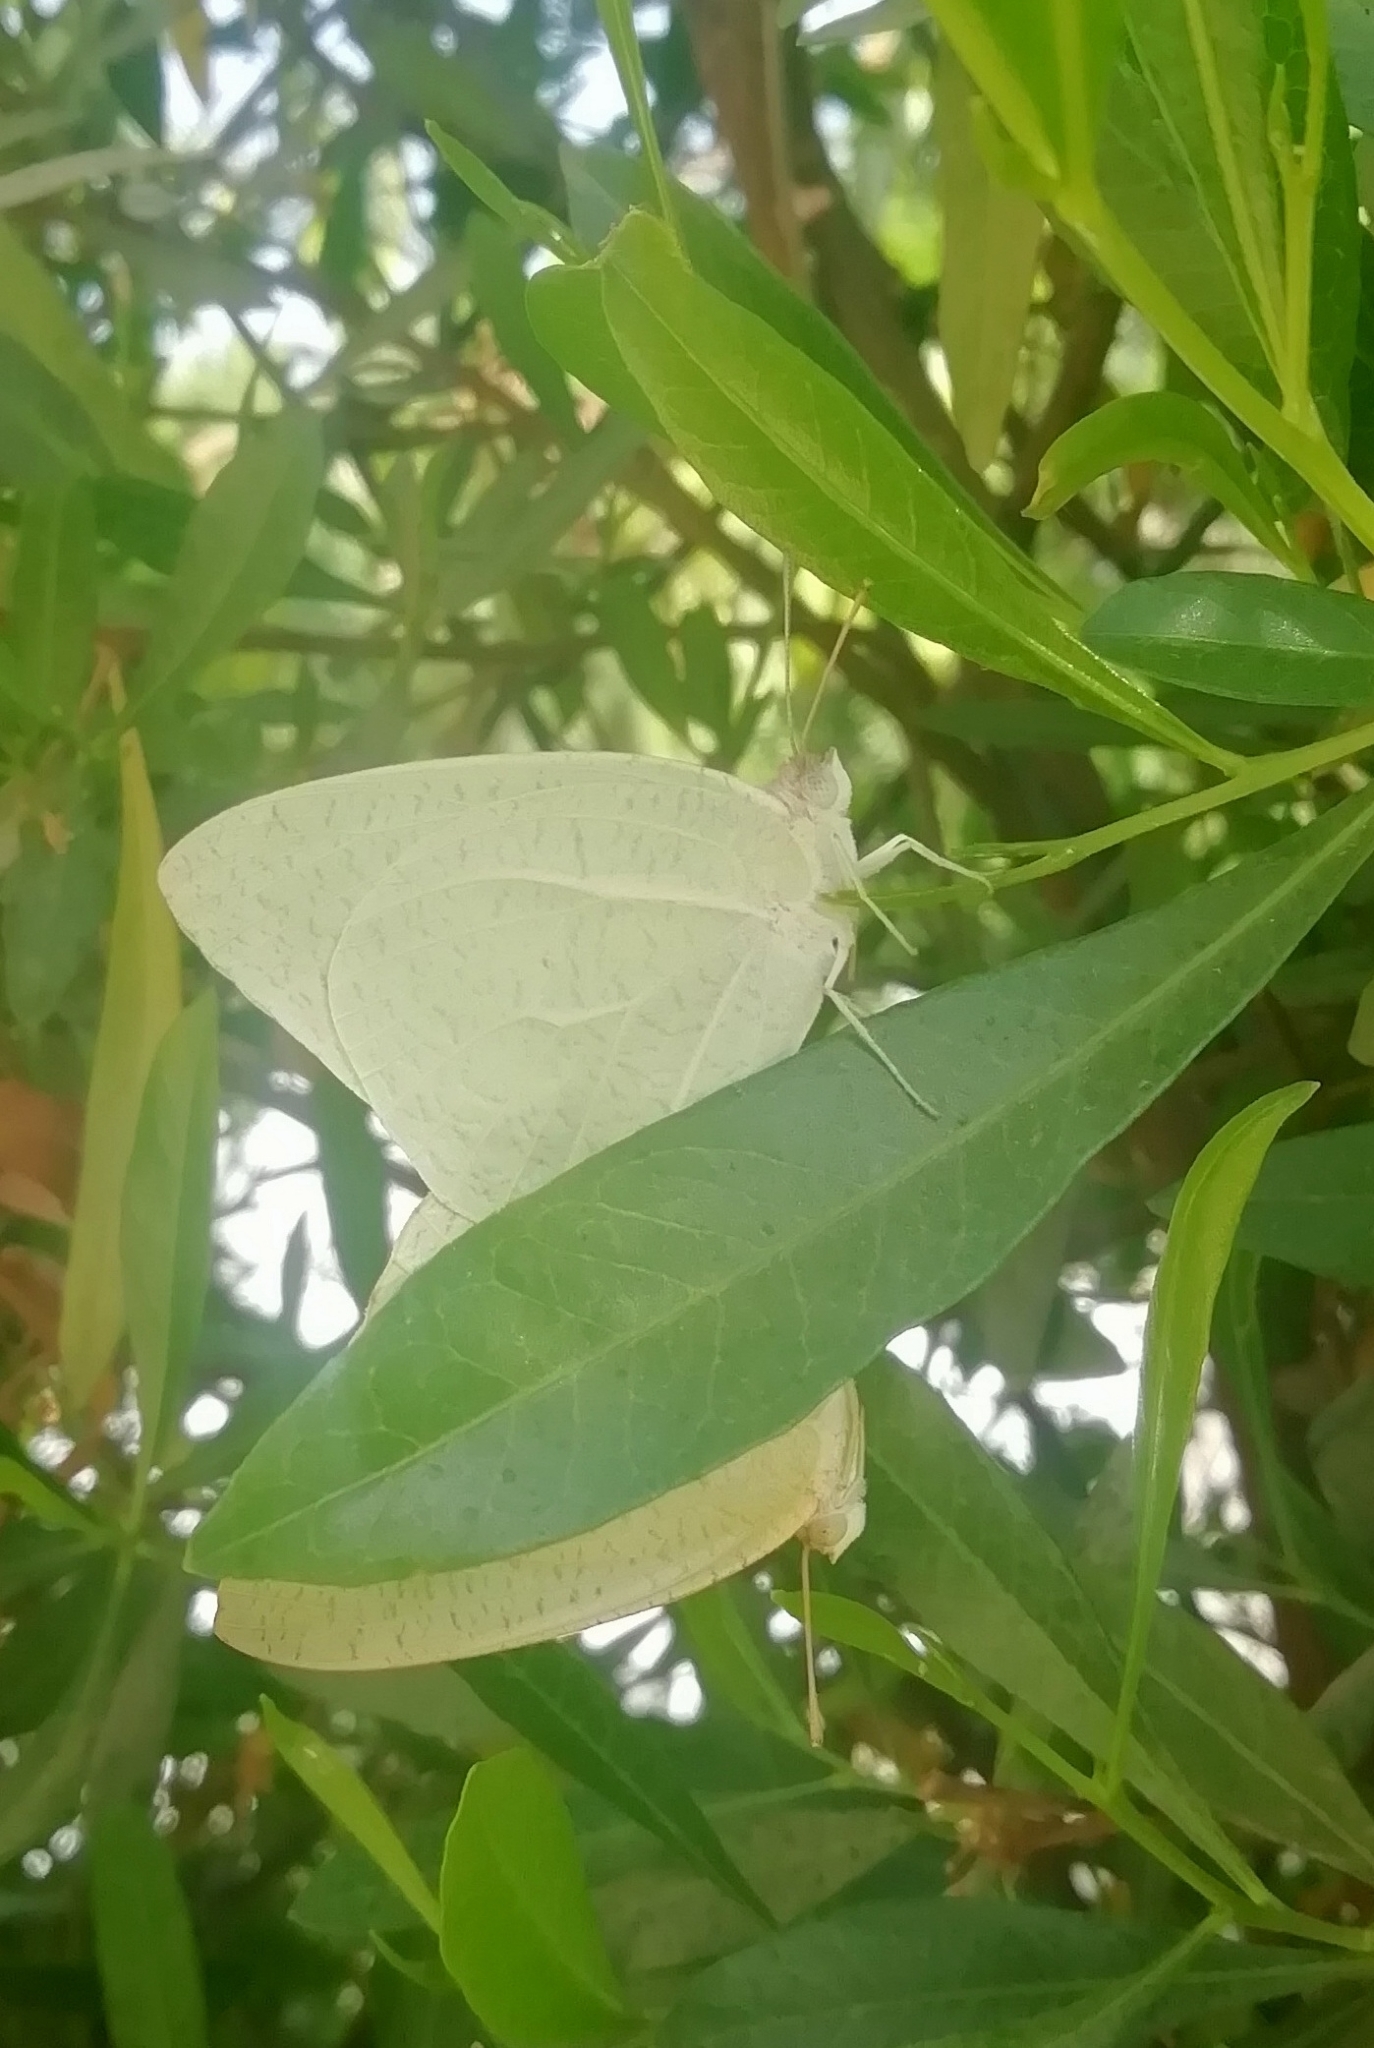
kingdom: Animalia
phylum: Arthropoda
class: Insecta
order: Lepidoptera
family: Pieridae
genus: Catopsilia
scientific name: Catopsilia florella
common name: African migrant
